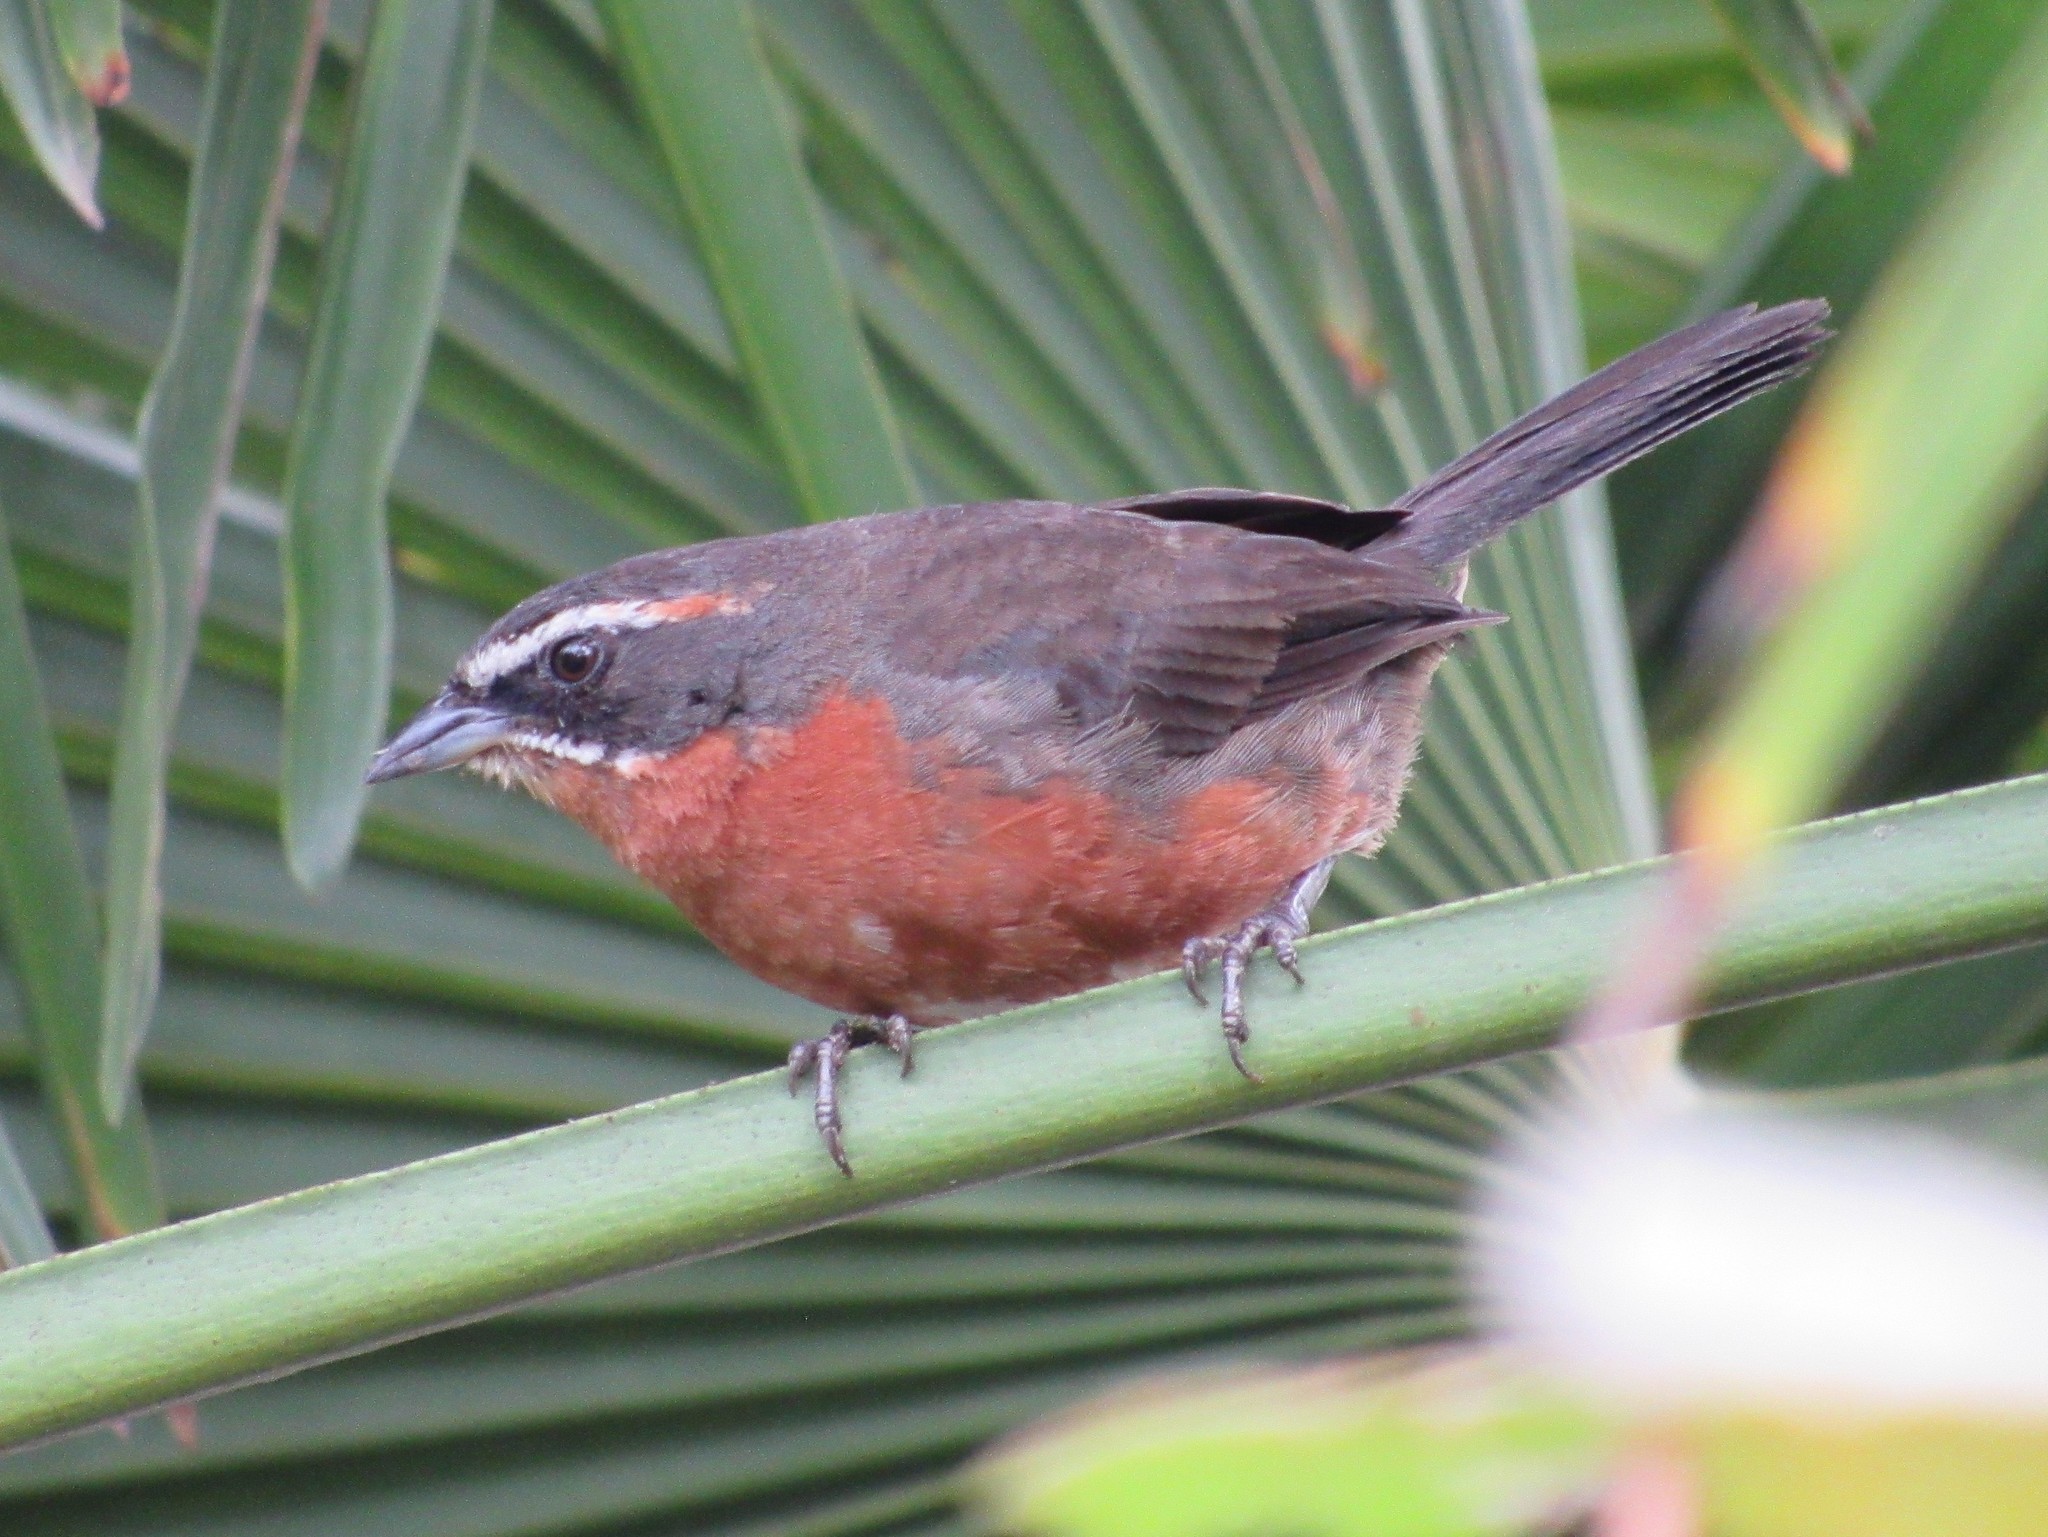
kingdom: Animalia
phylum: Chordata
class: Aves
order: Passeriformes
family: Thraupidae
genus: Poospiza
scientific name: Poospiza nigrorufa
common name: Black-and-rufous warbling finch
